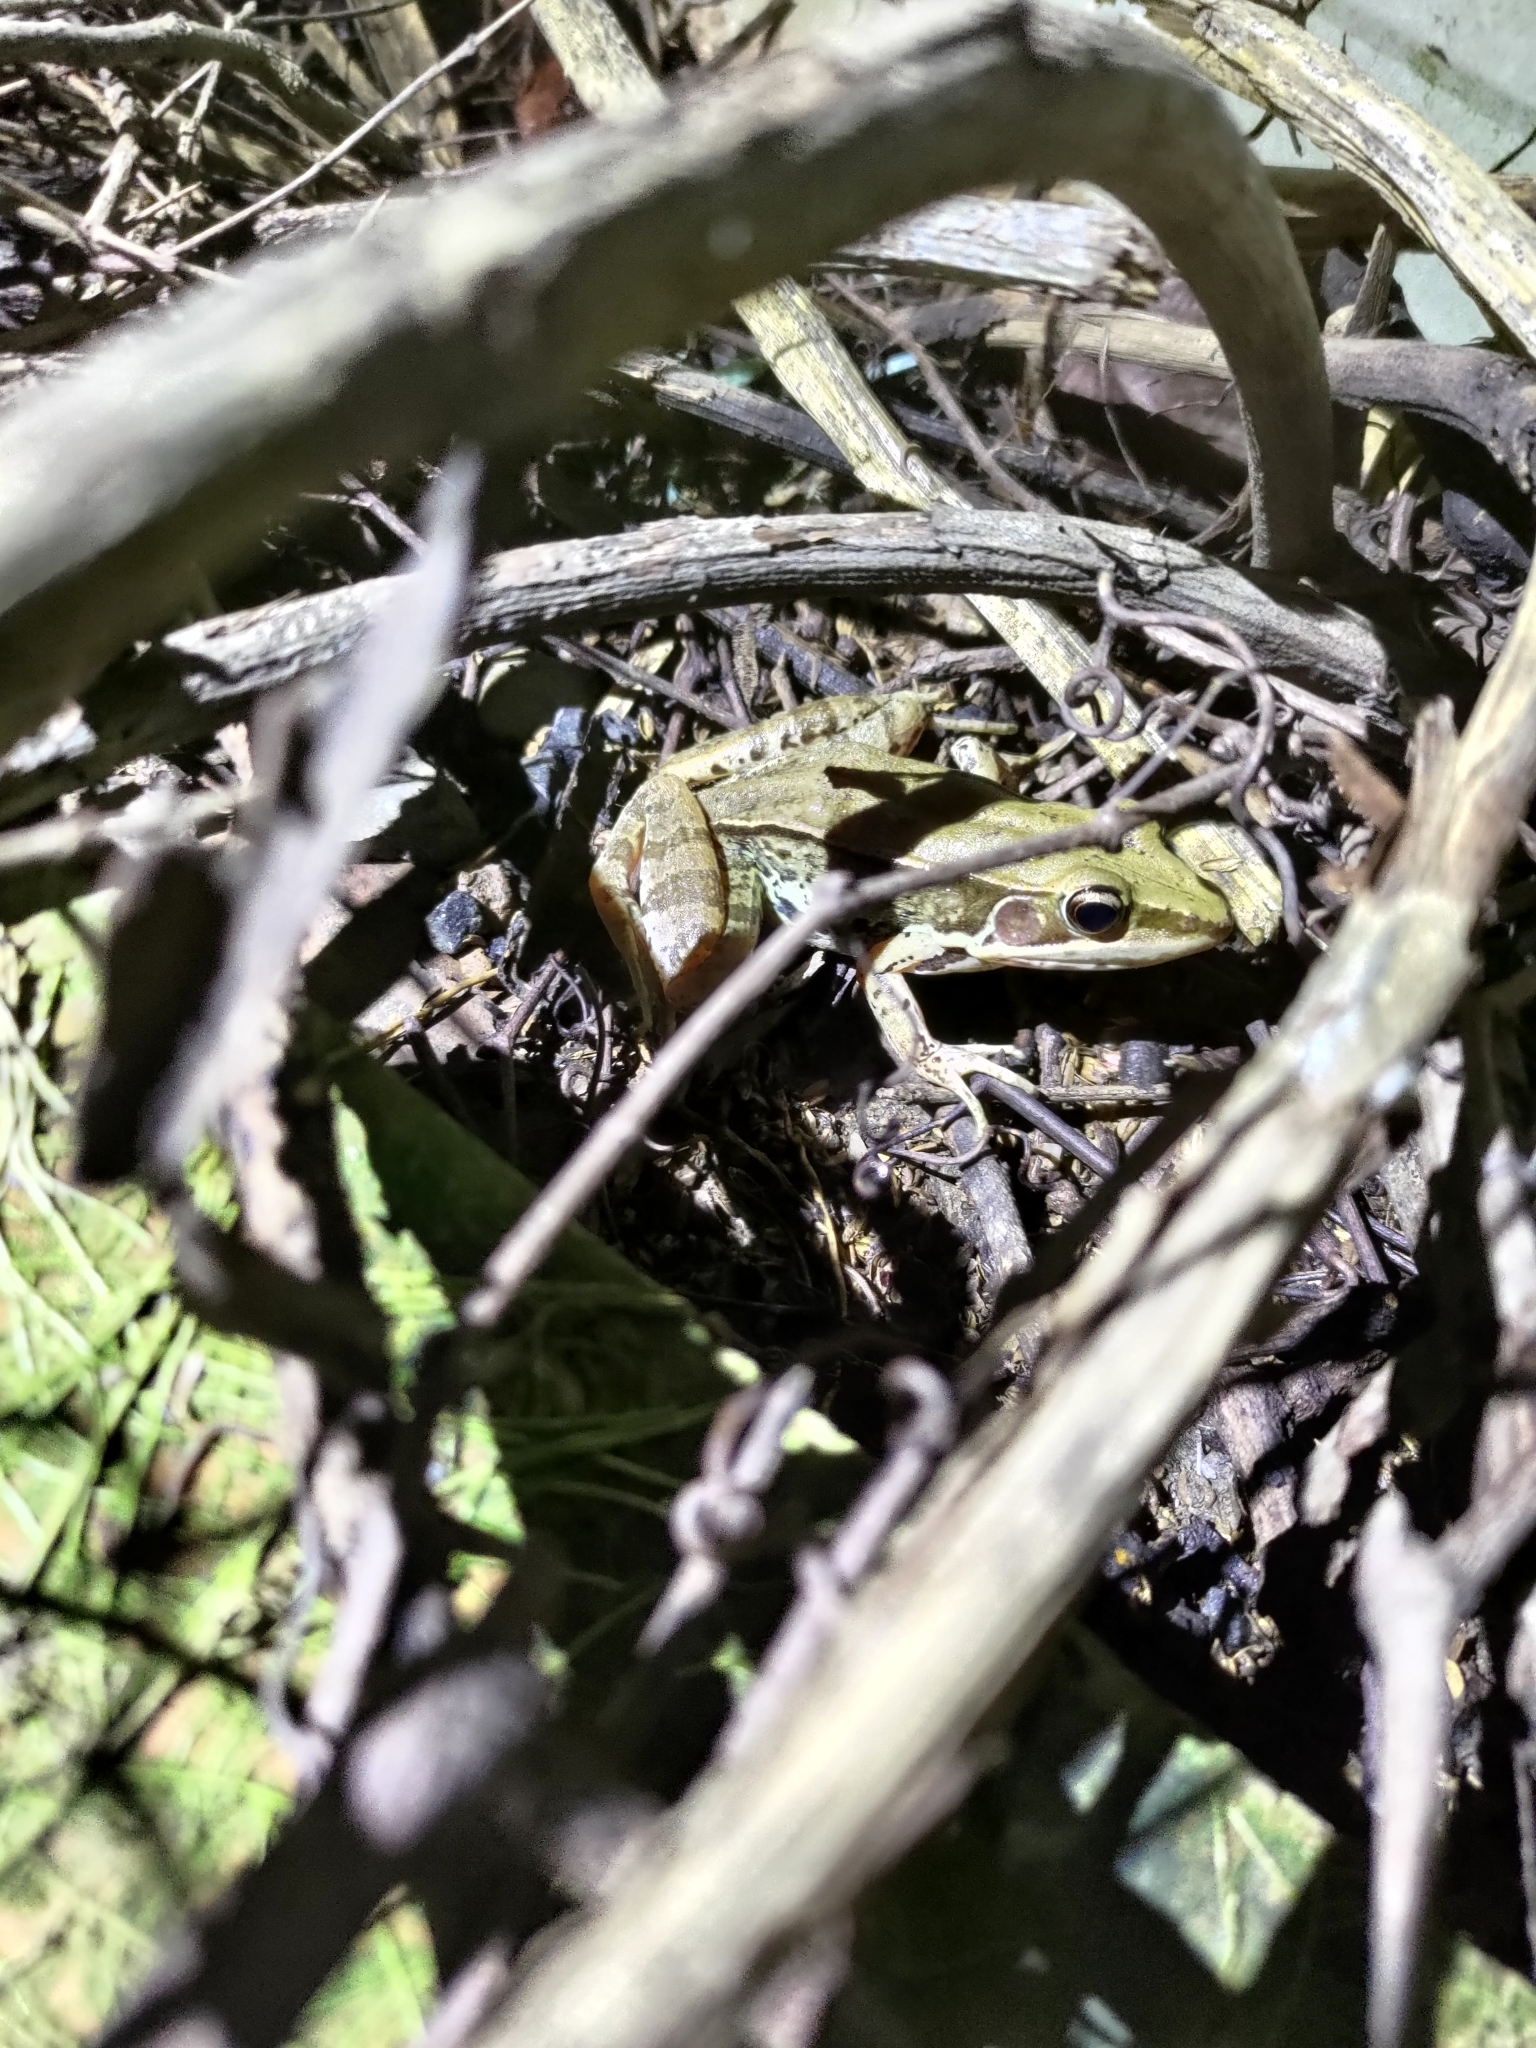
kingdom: Animalia
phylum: Chordata
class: Amphibia
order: Anura
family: Ranidae
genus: Sylvirana
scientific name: Sylvirana guentheri
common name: Guenther's amoy frog
